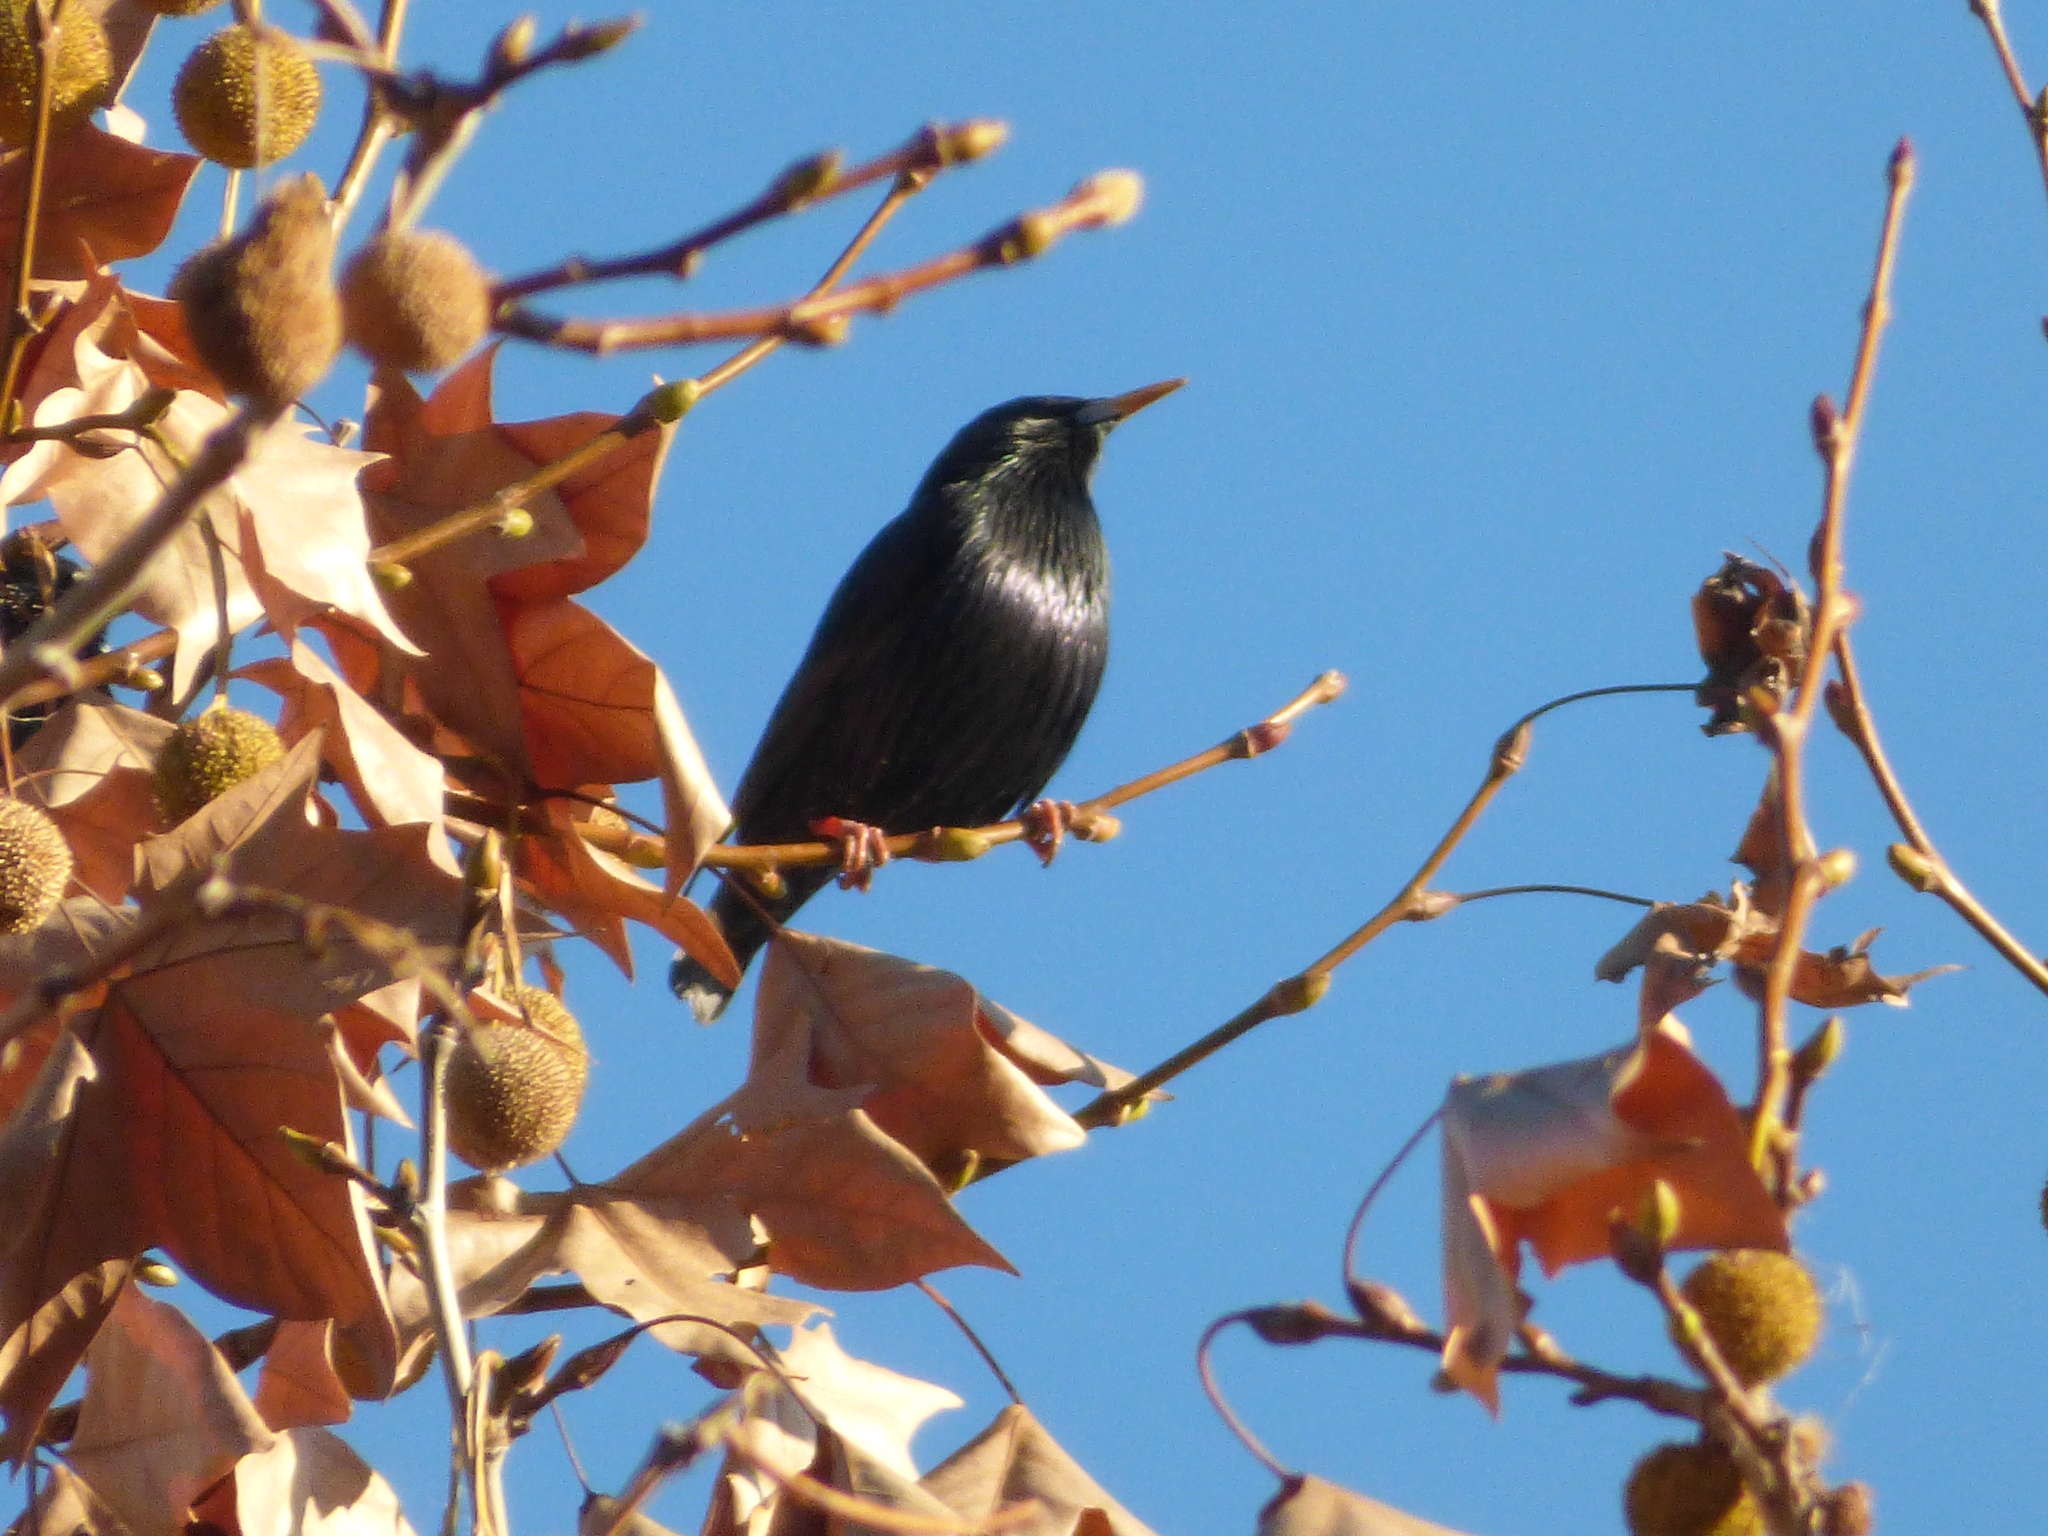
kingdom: Animalia
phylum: Chordata
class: Aves
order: Passeriformes
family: Sturnidae
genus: Sturnus
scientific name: Sturnus unicolor
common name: Spotless starling
